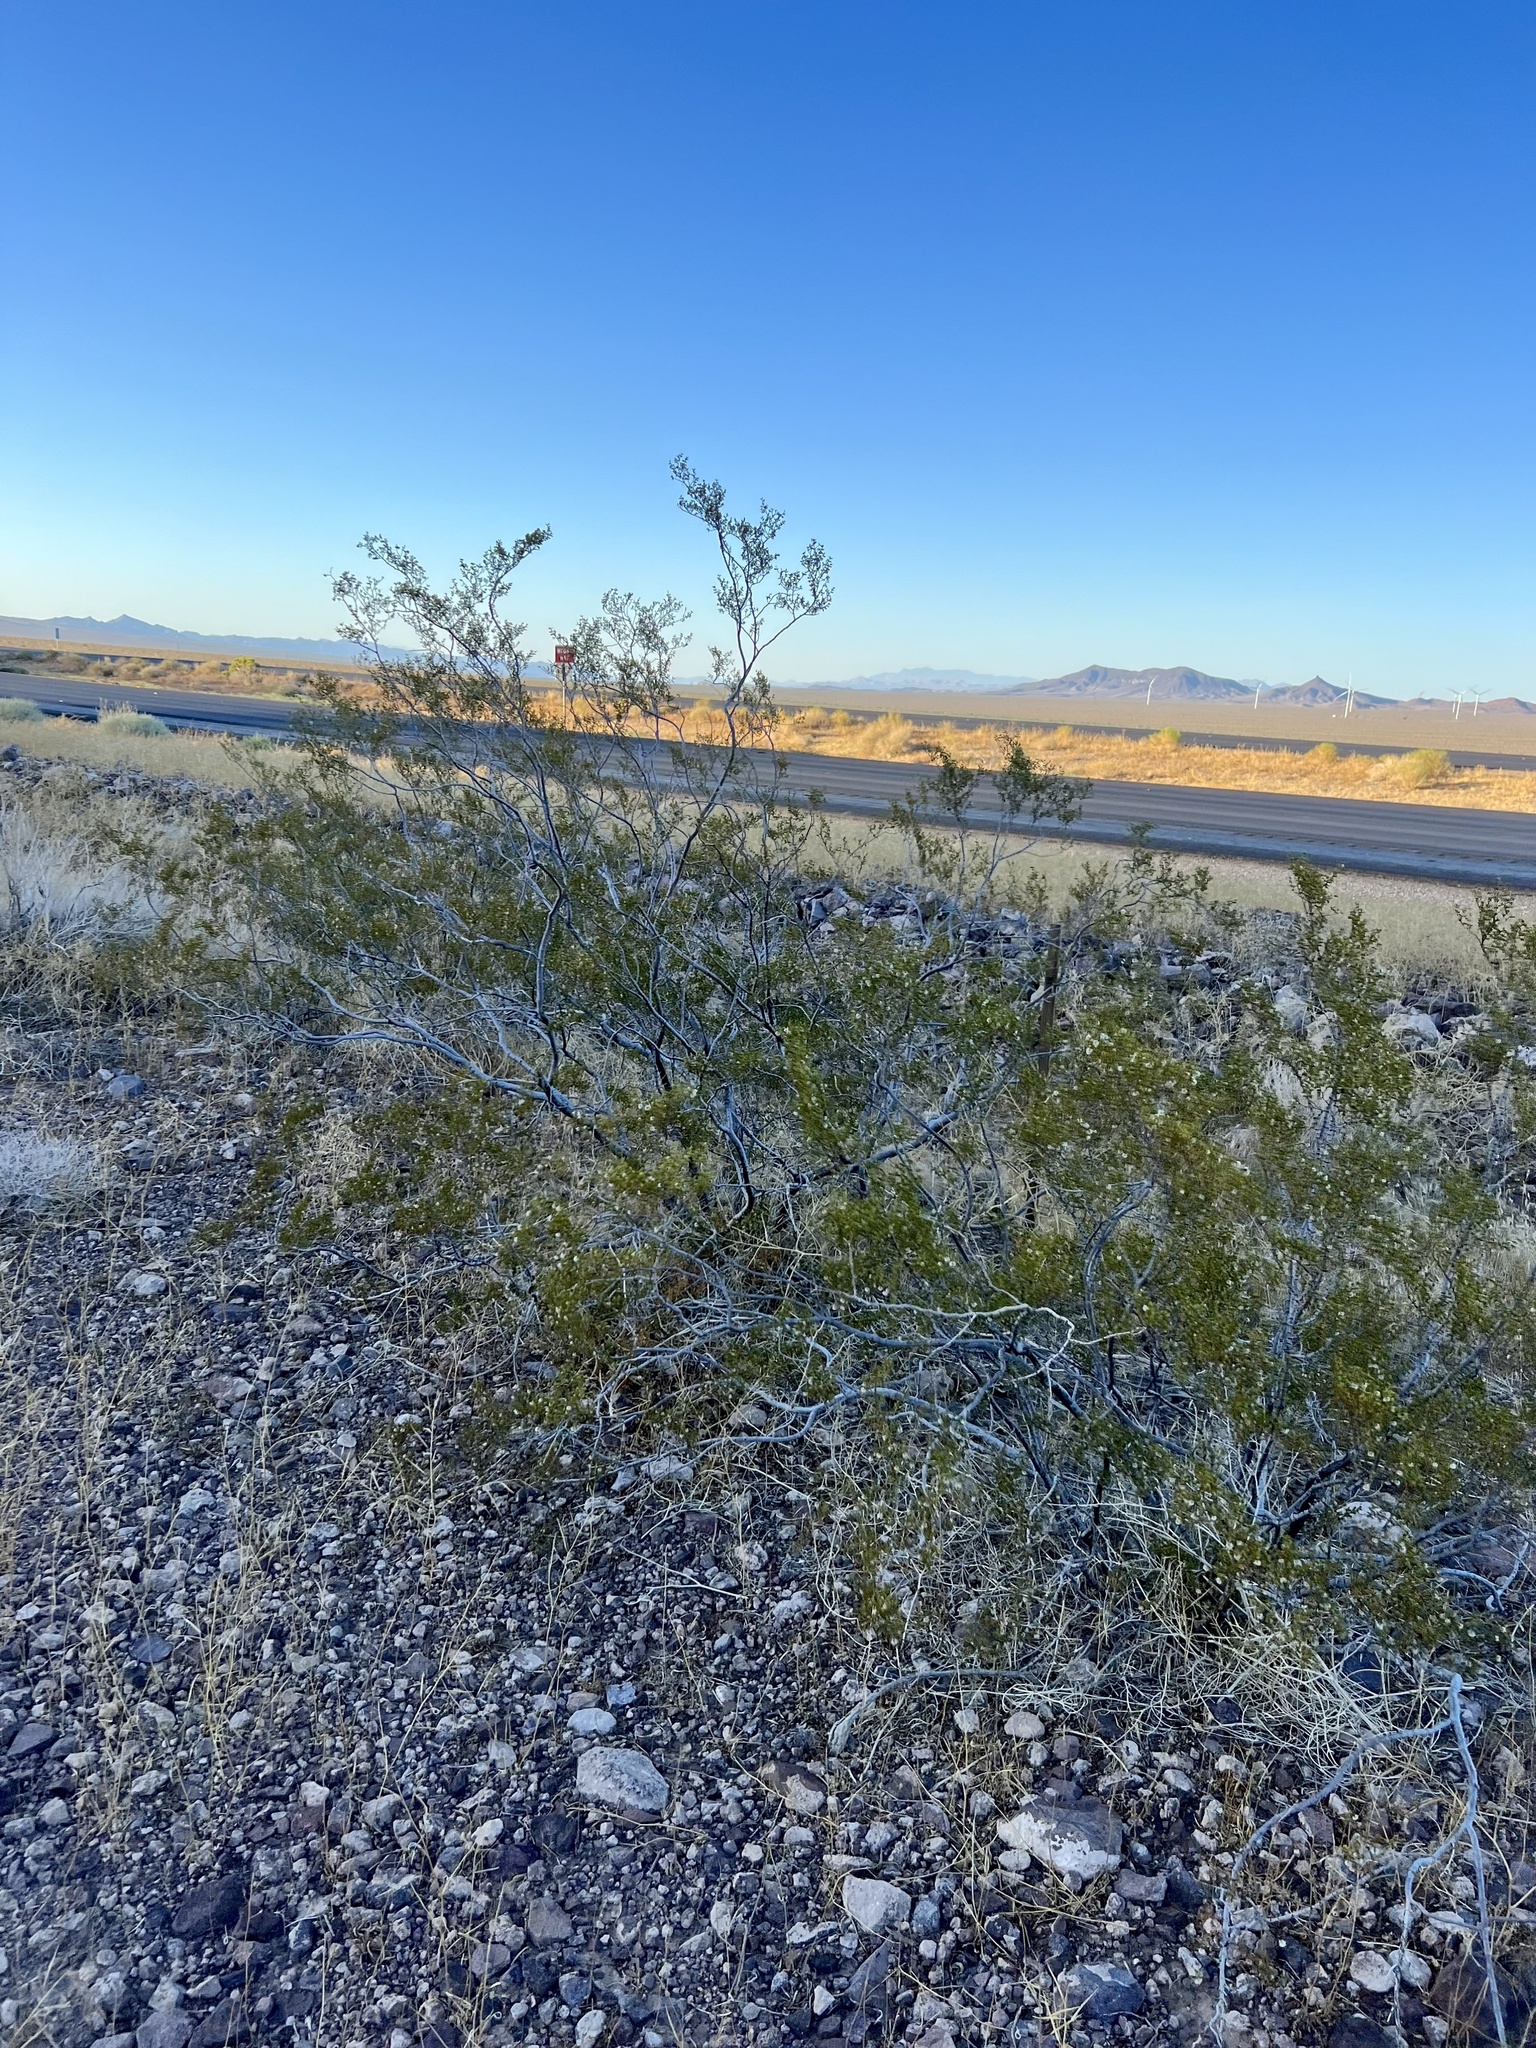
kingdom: Plantae
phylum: Tracheophyta
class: Magnoliopsida
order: Zygophyllales
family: Zygophyllaceae
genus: Larrea
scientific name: Larrea tridentata
